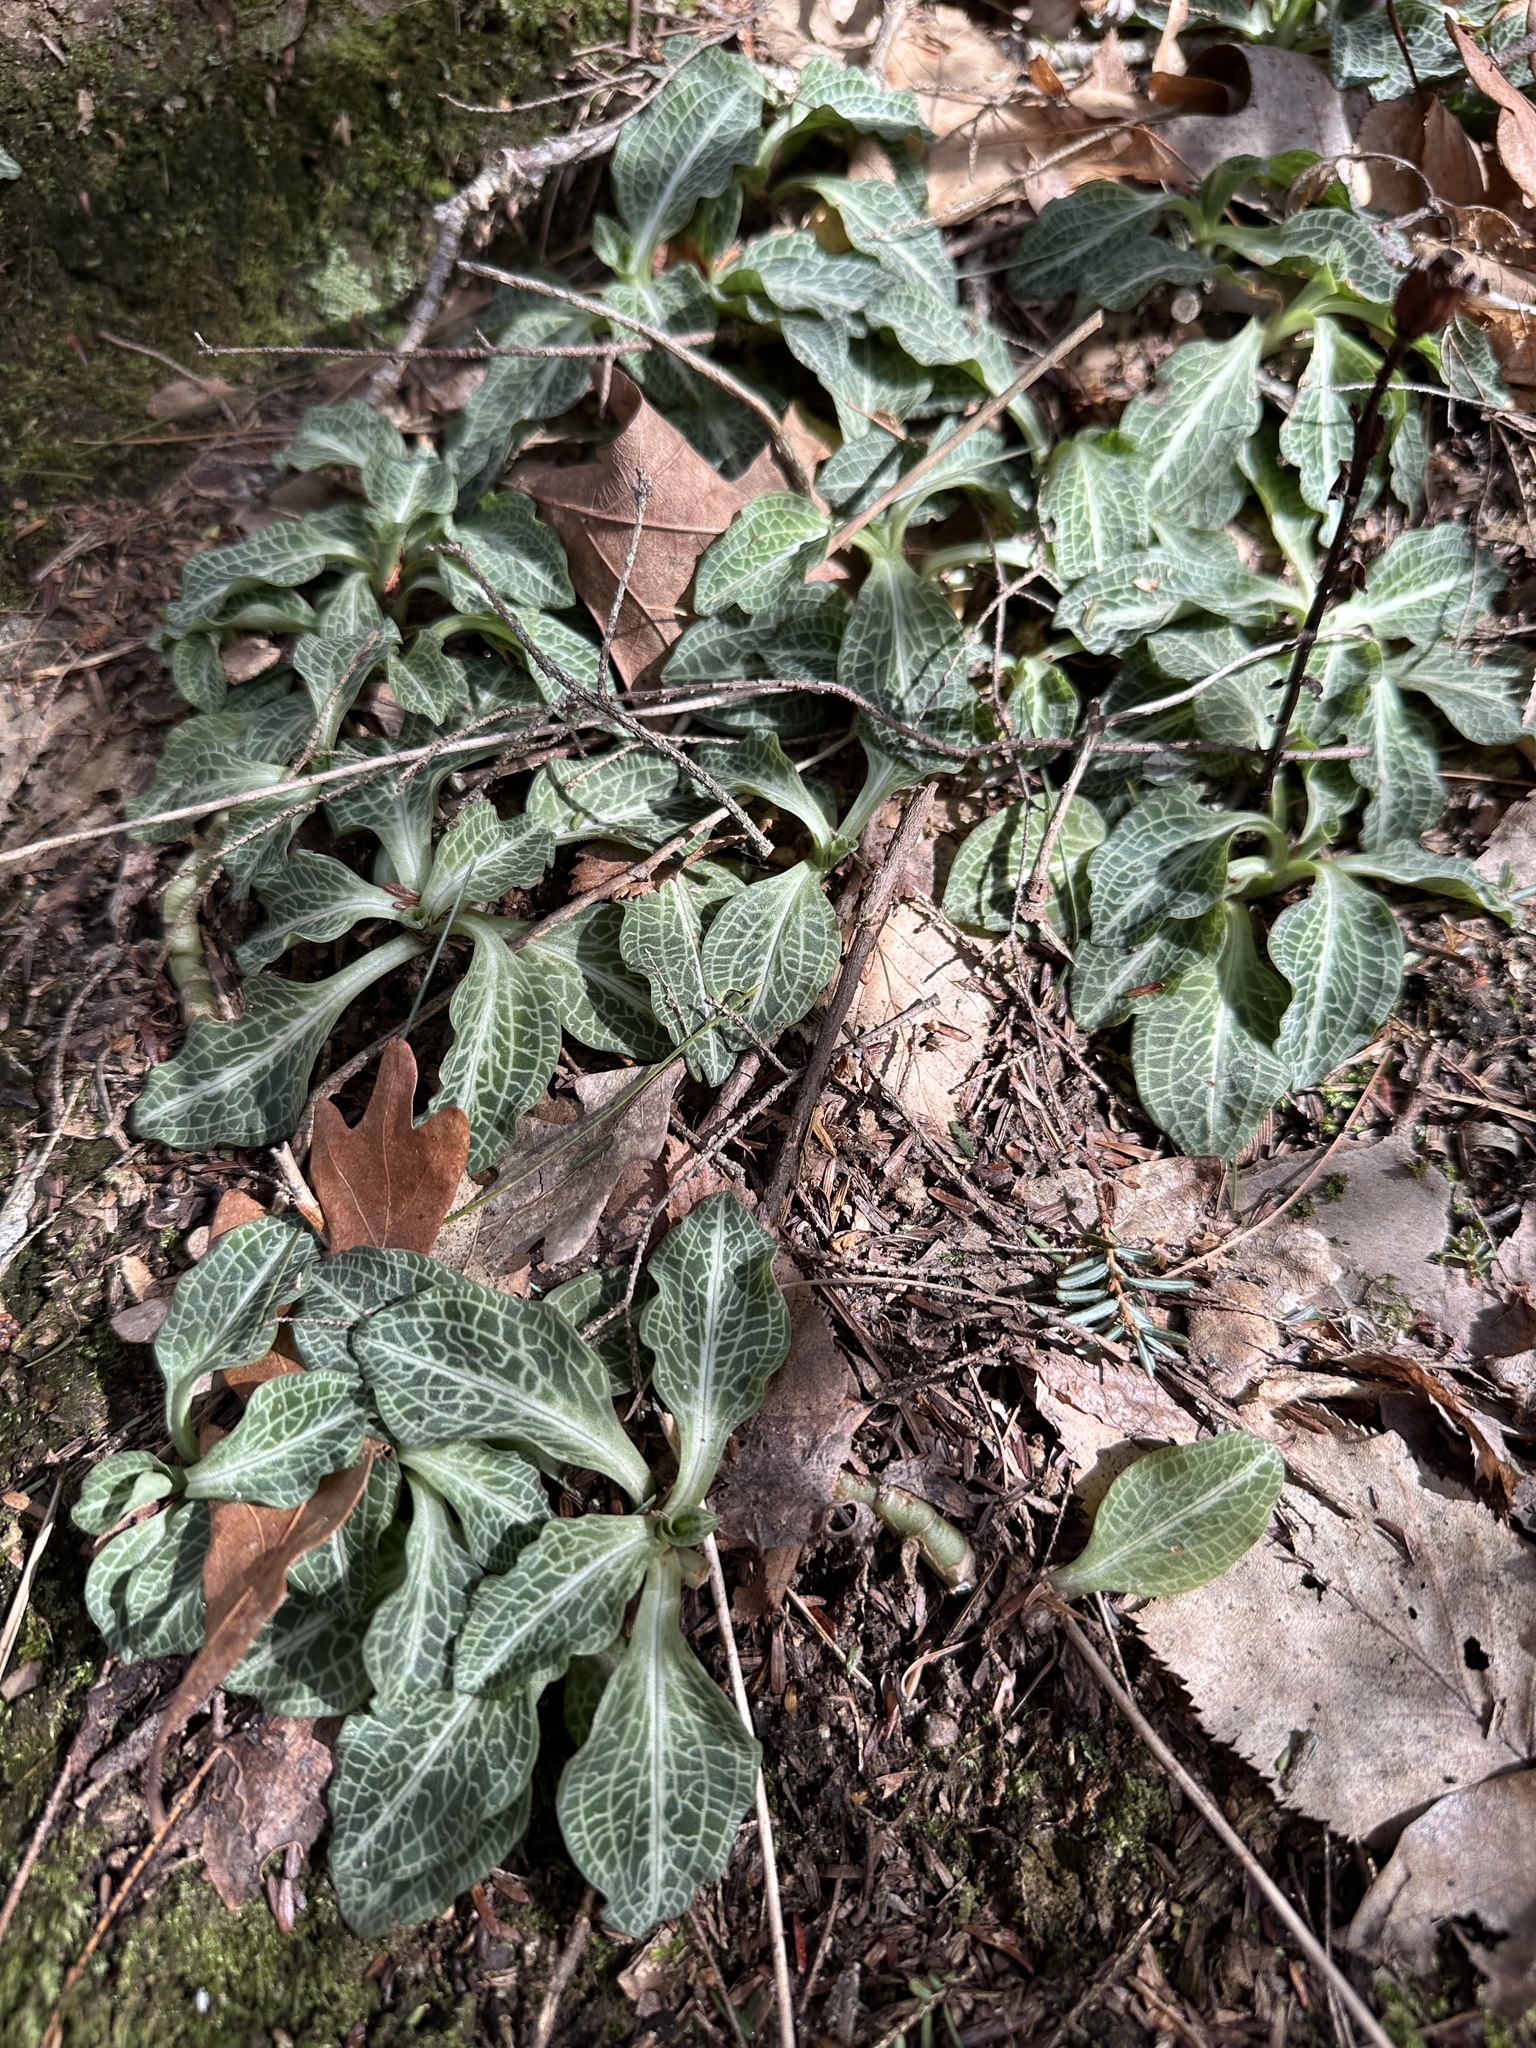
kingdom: Plantae
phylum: Tracheophyta
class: Liliopsida
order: Asparagales
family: Orchidaceae
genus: Goodyera
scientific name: Goodyera pubescens
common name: Downy rattlesnake-plantain
